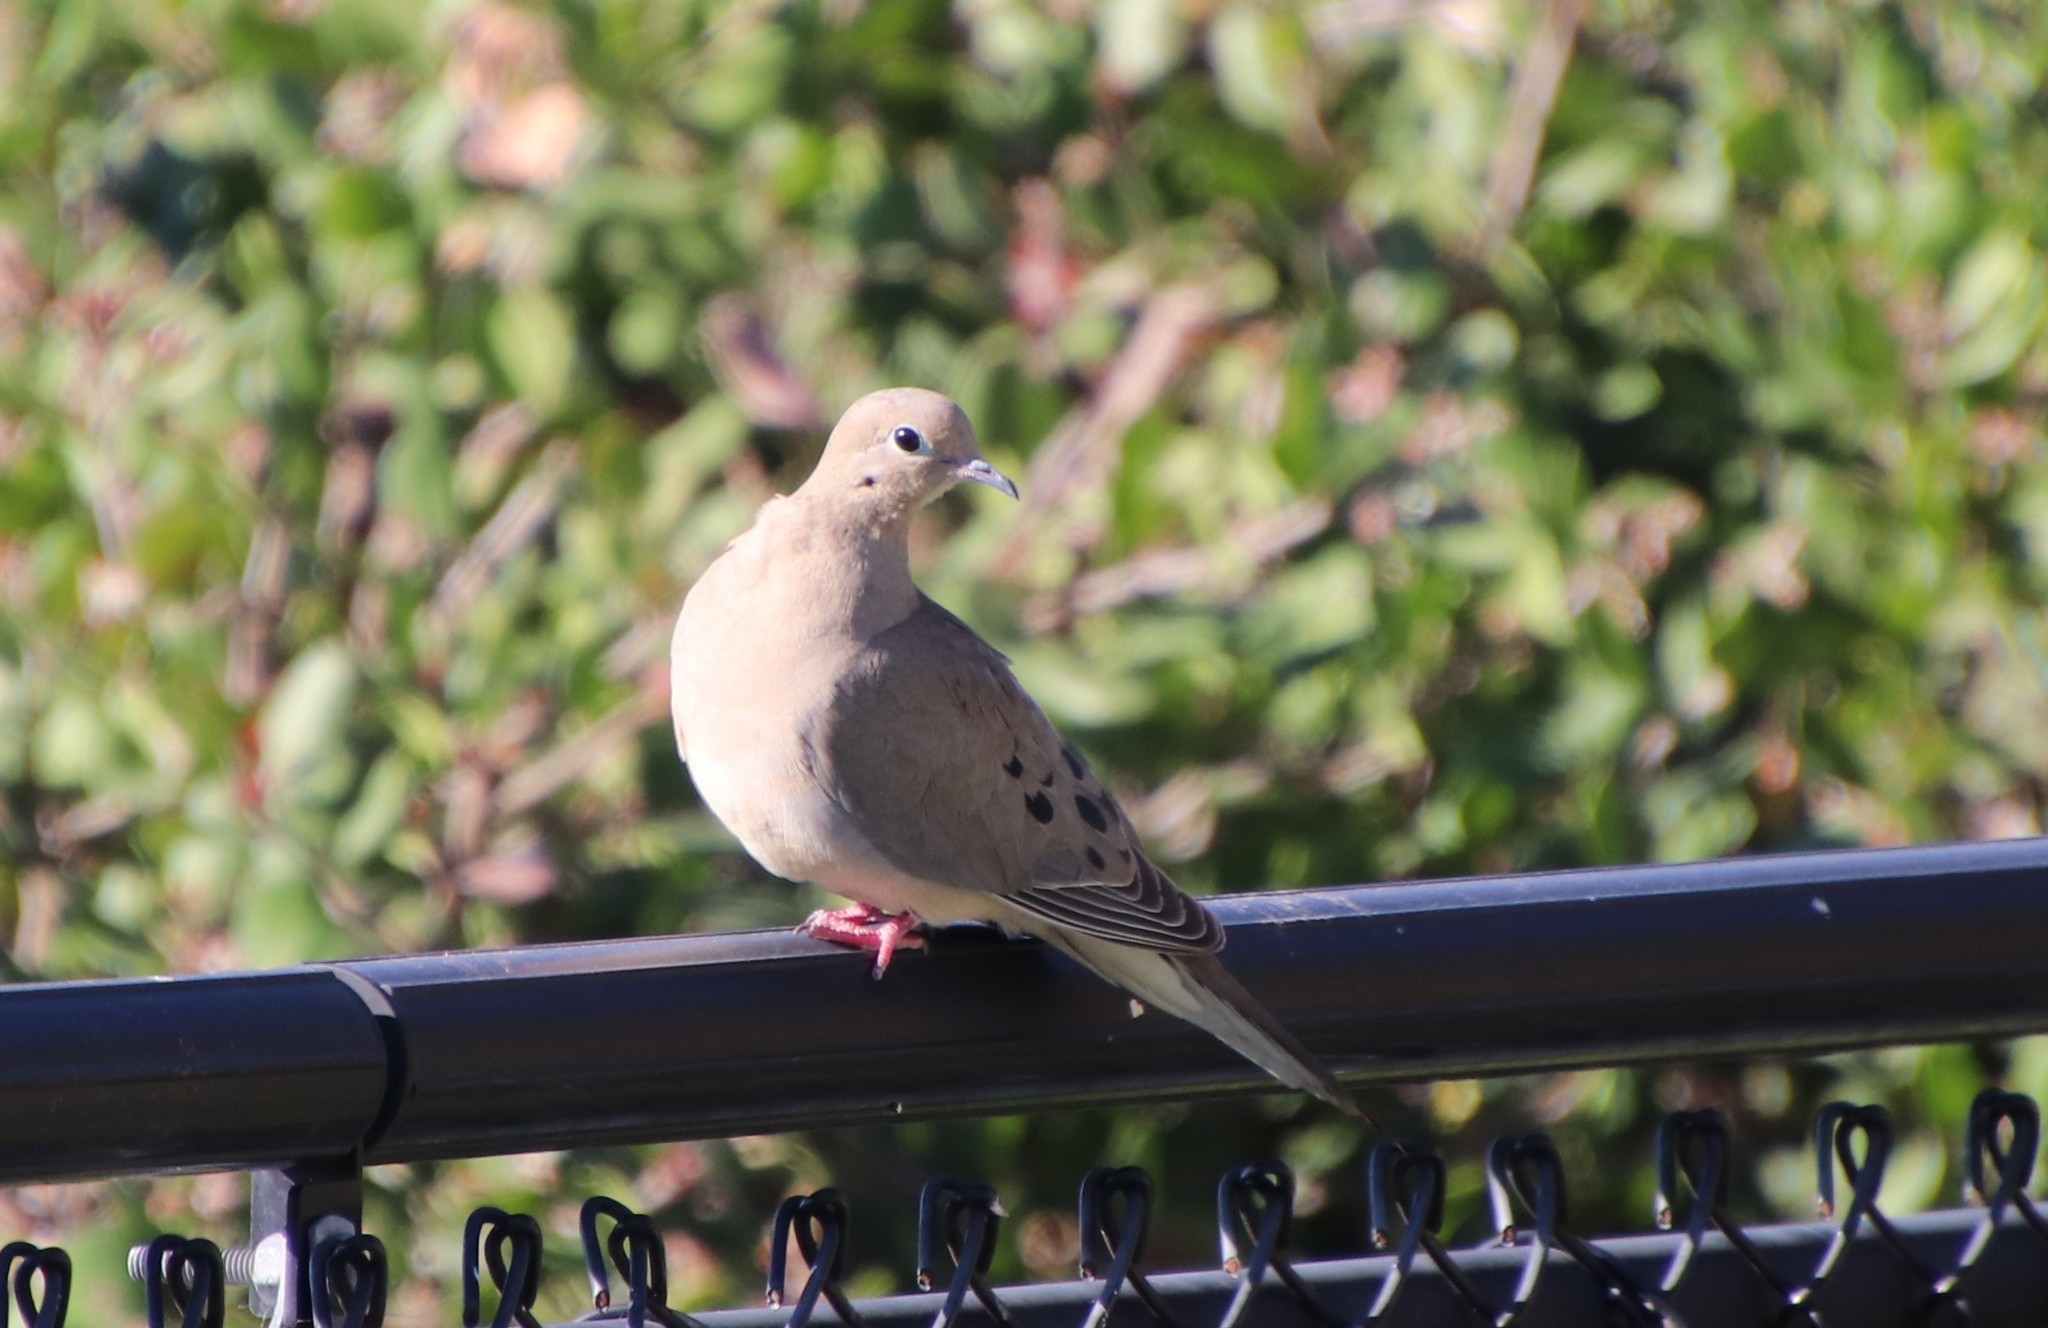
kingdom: Animalia
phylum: Chordata
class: Aves
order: Columbiformes
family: Columbidae
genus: Zenaida
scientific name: Zenaida macroura
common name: Mourning dove
